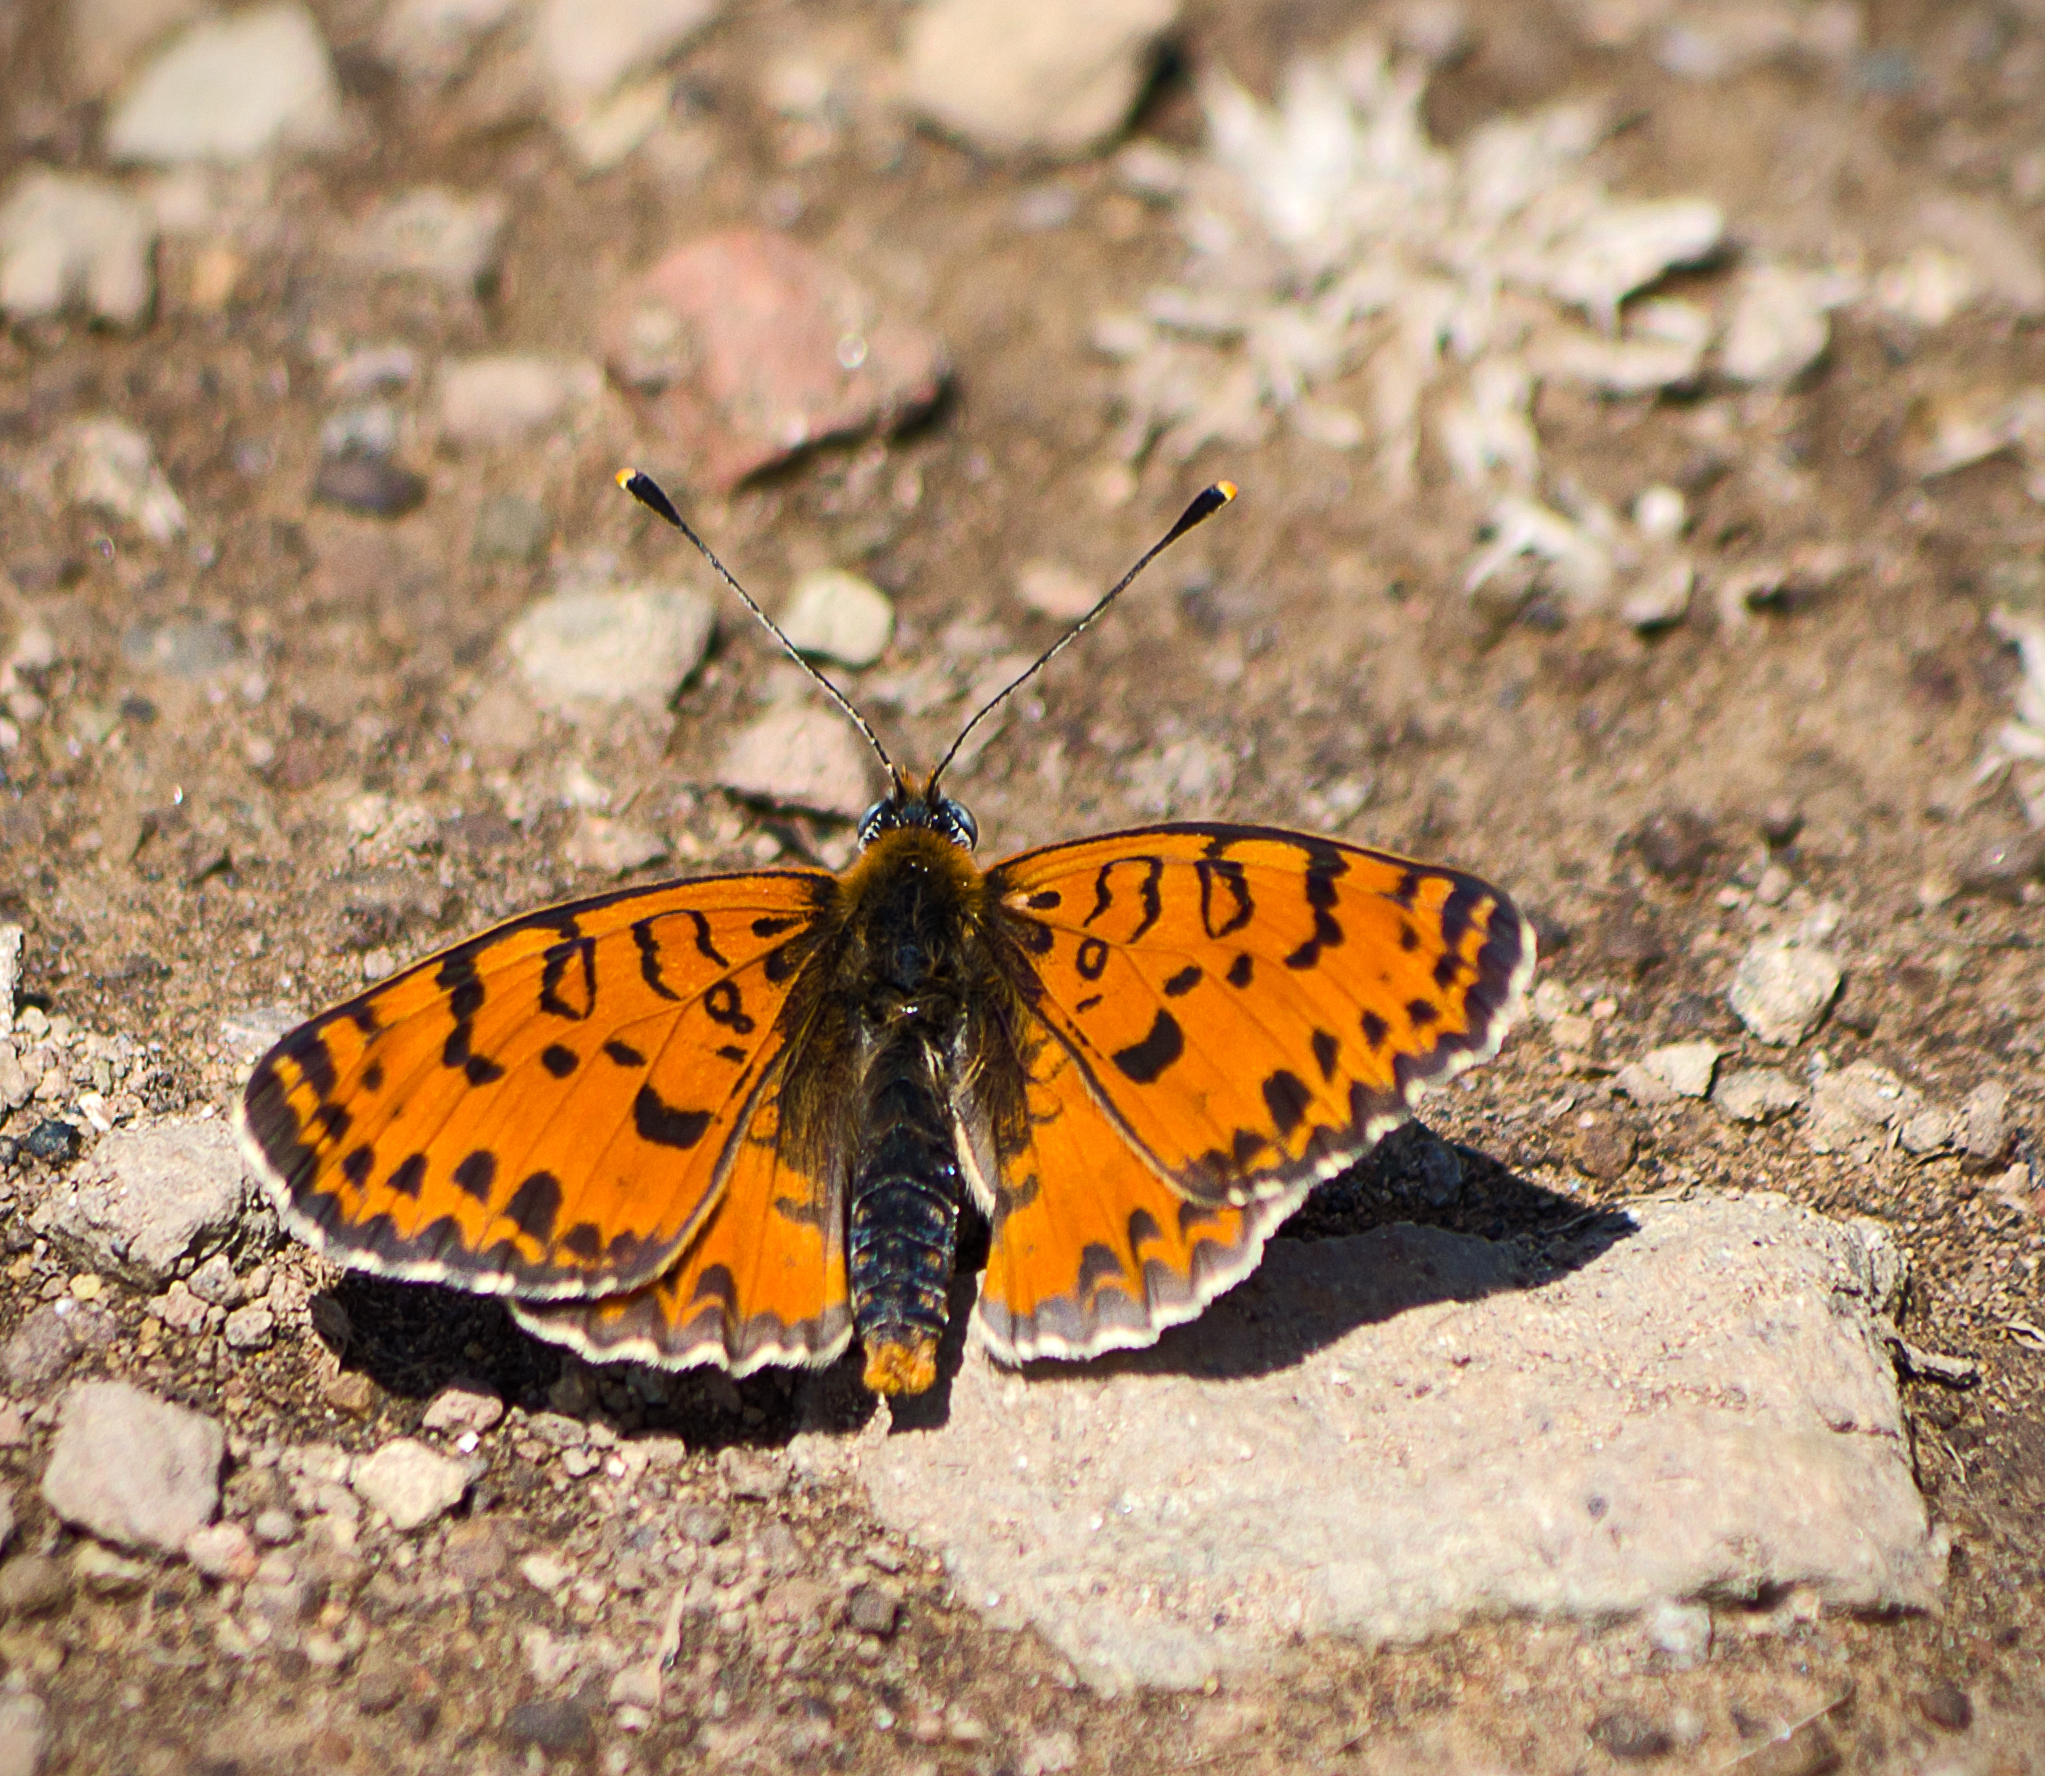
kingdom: Animalia
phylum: Arthropoda
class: Insecta
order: Lepidoptera
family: Nymphalidae
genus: Melitaea
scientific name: Melitaea didyma
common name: Spotted fritillary
